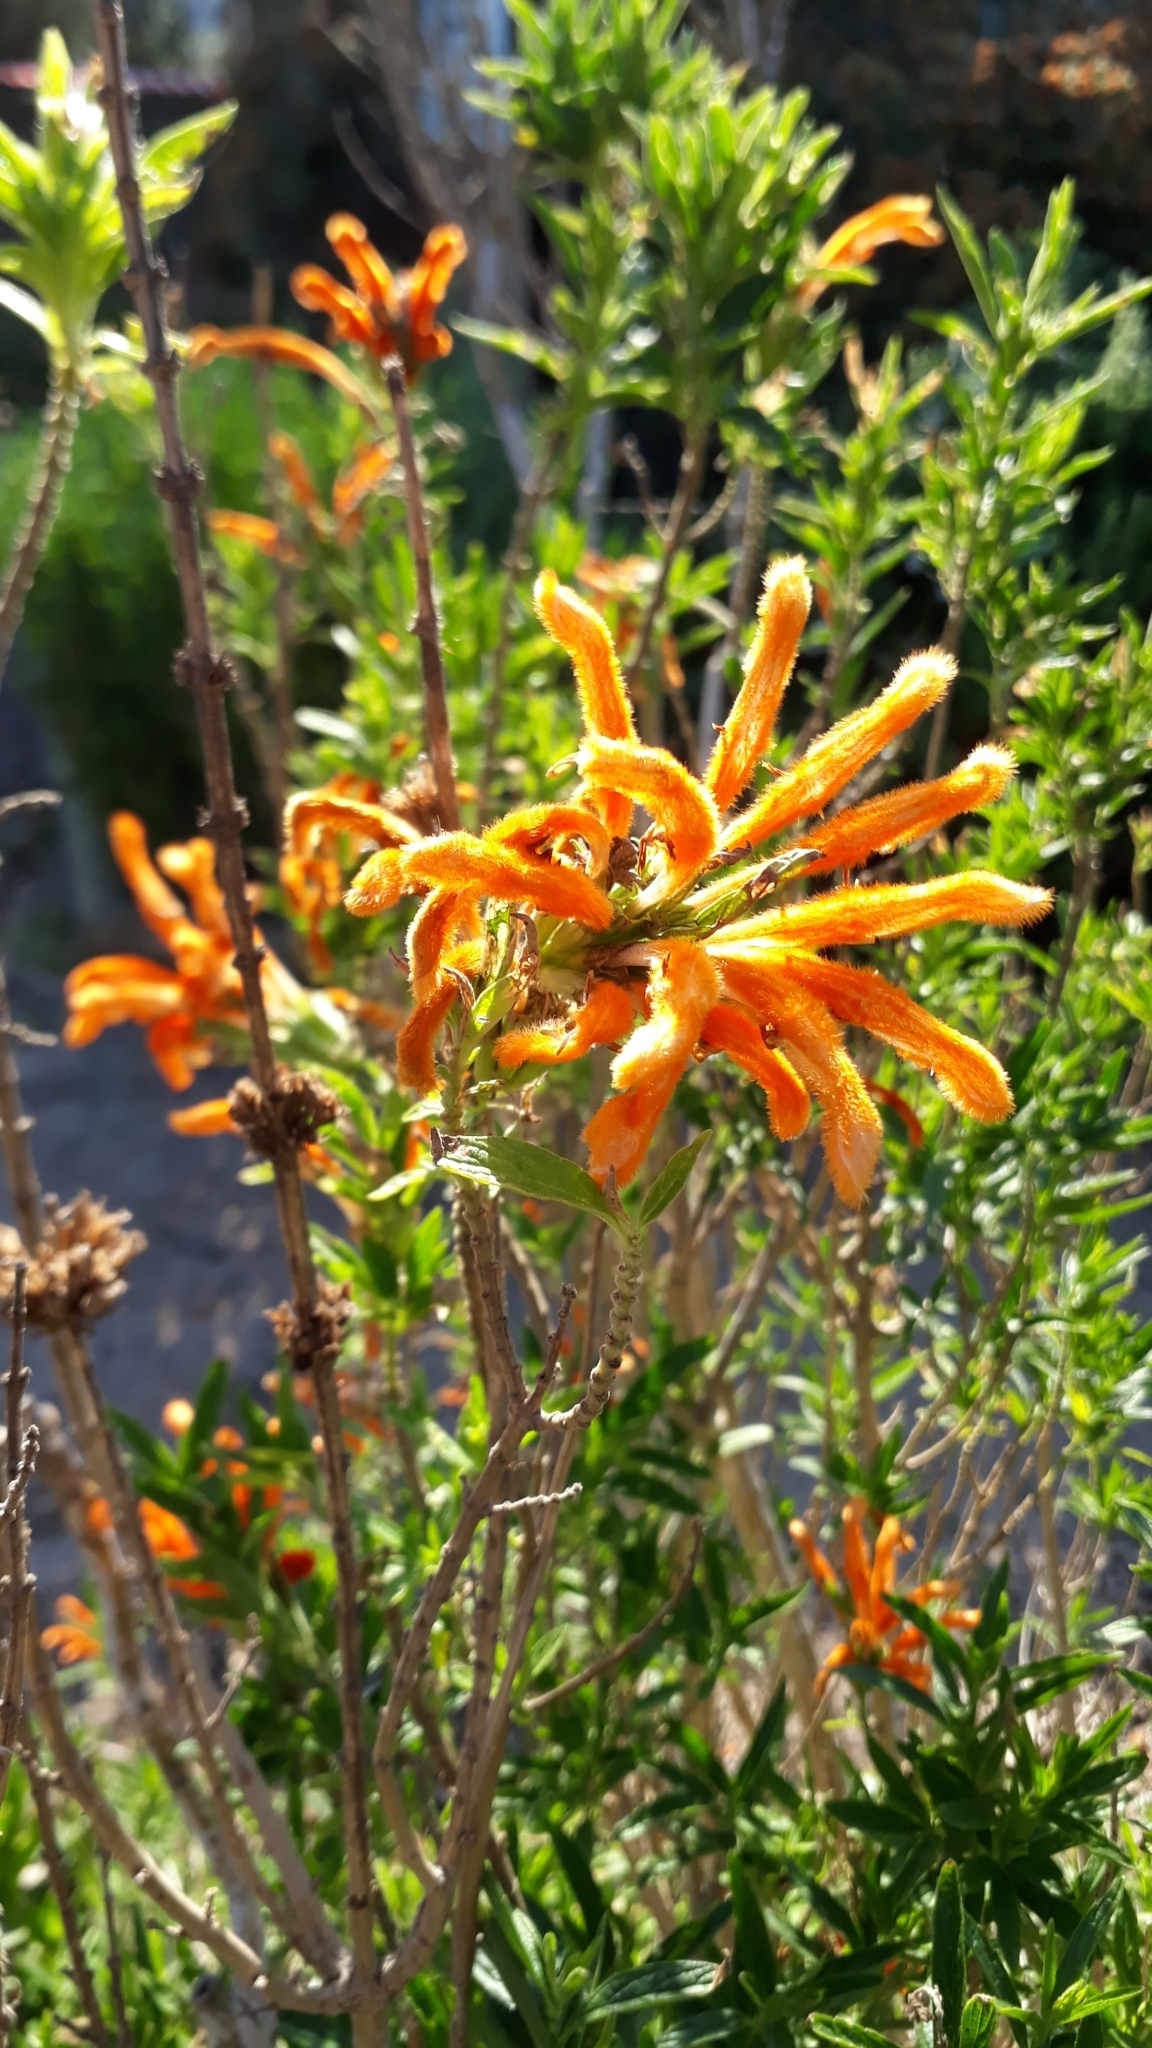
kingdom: Plantae
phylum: Tracheophyta
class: Magnoliopsida
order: Lamiales
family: Lamiaceae
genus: Leonotis
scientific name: Leonotis leonurus
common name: Lion's ear
